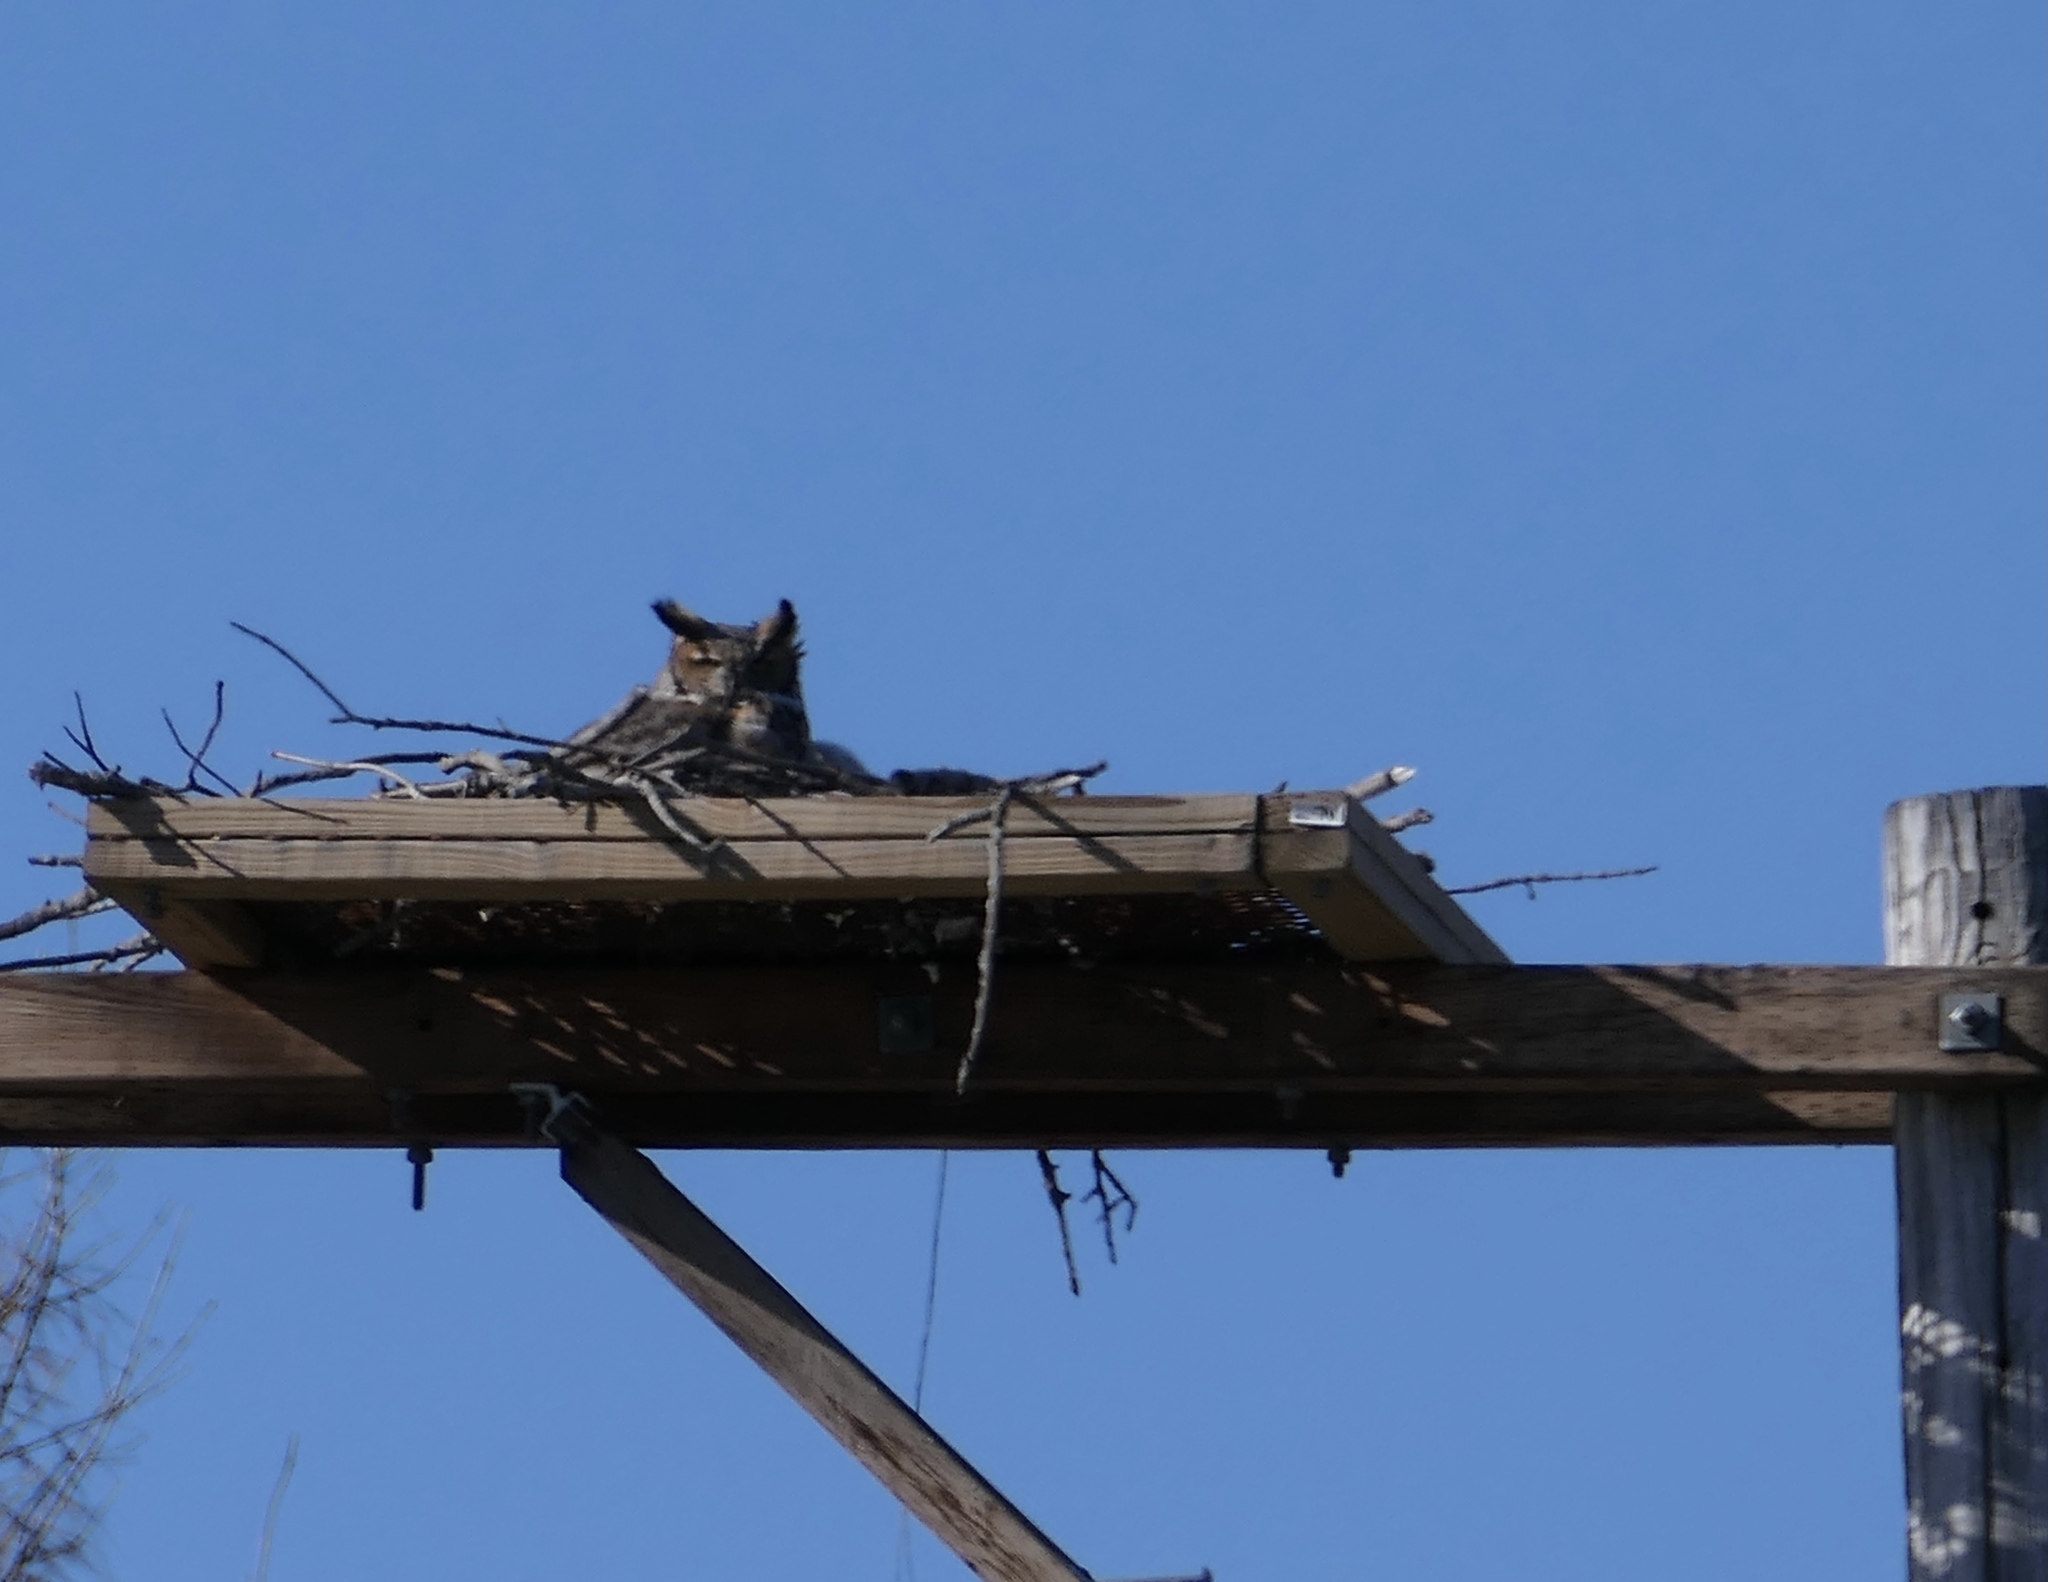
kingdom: Animalia
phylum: Chordata
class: Aves
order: Strigiformes
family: Strigidae
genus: Bubo
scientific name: Bubo virginianus
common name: Great horned owl
